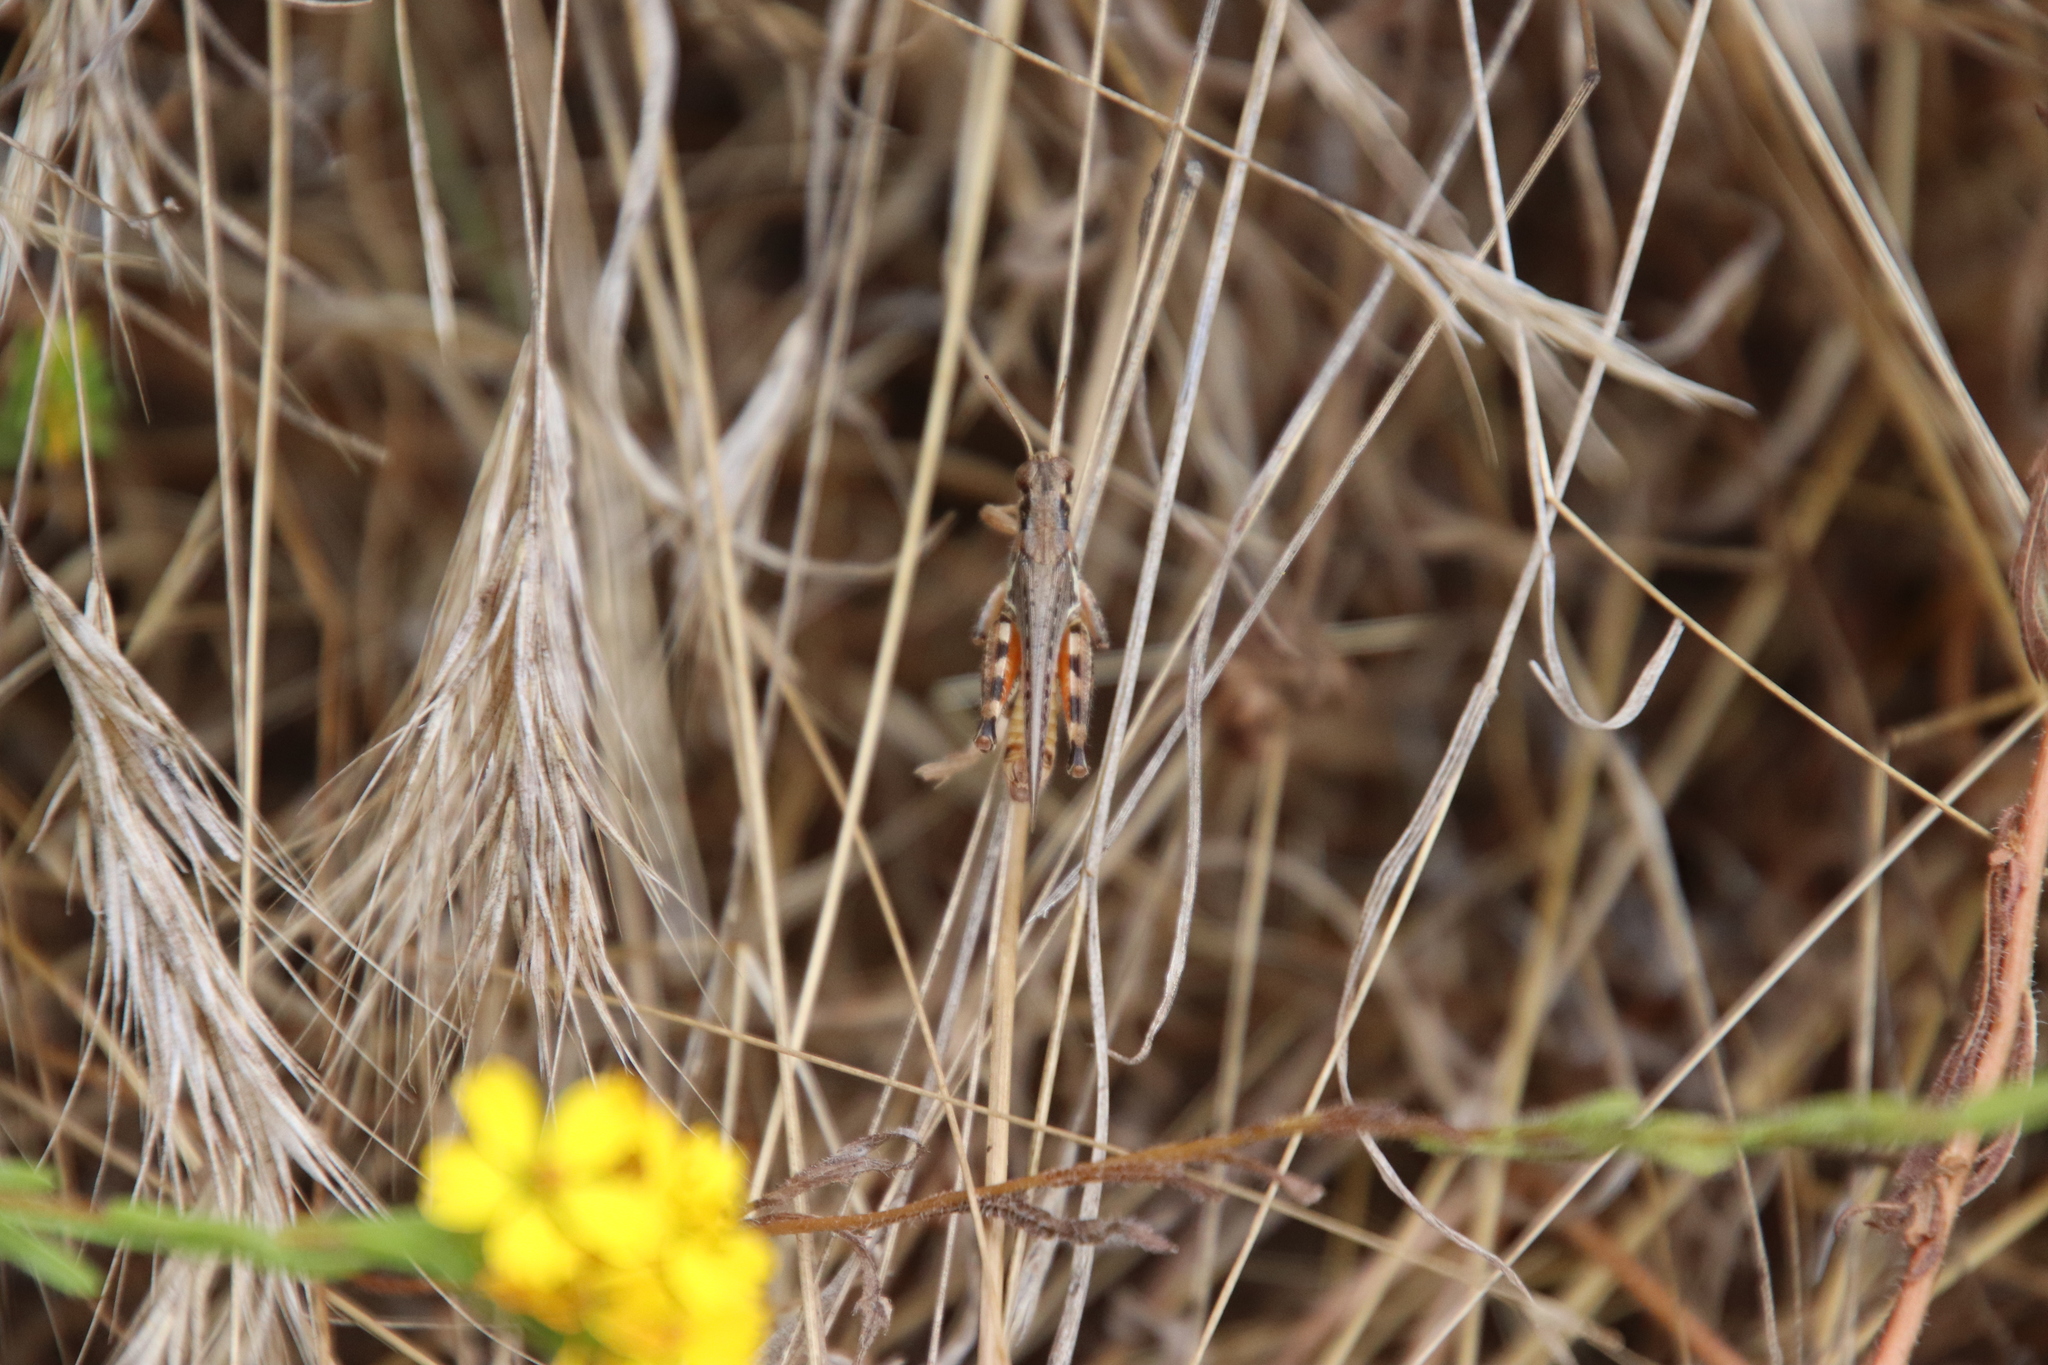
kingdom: Animalia
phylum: Arthropoda
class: Insecta
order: Orthoptera
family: Acrididae
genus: Melanoplus
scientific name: Melanoplus devastator
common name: Devastating grasshopper
